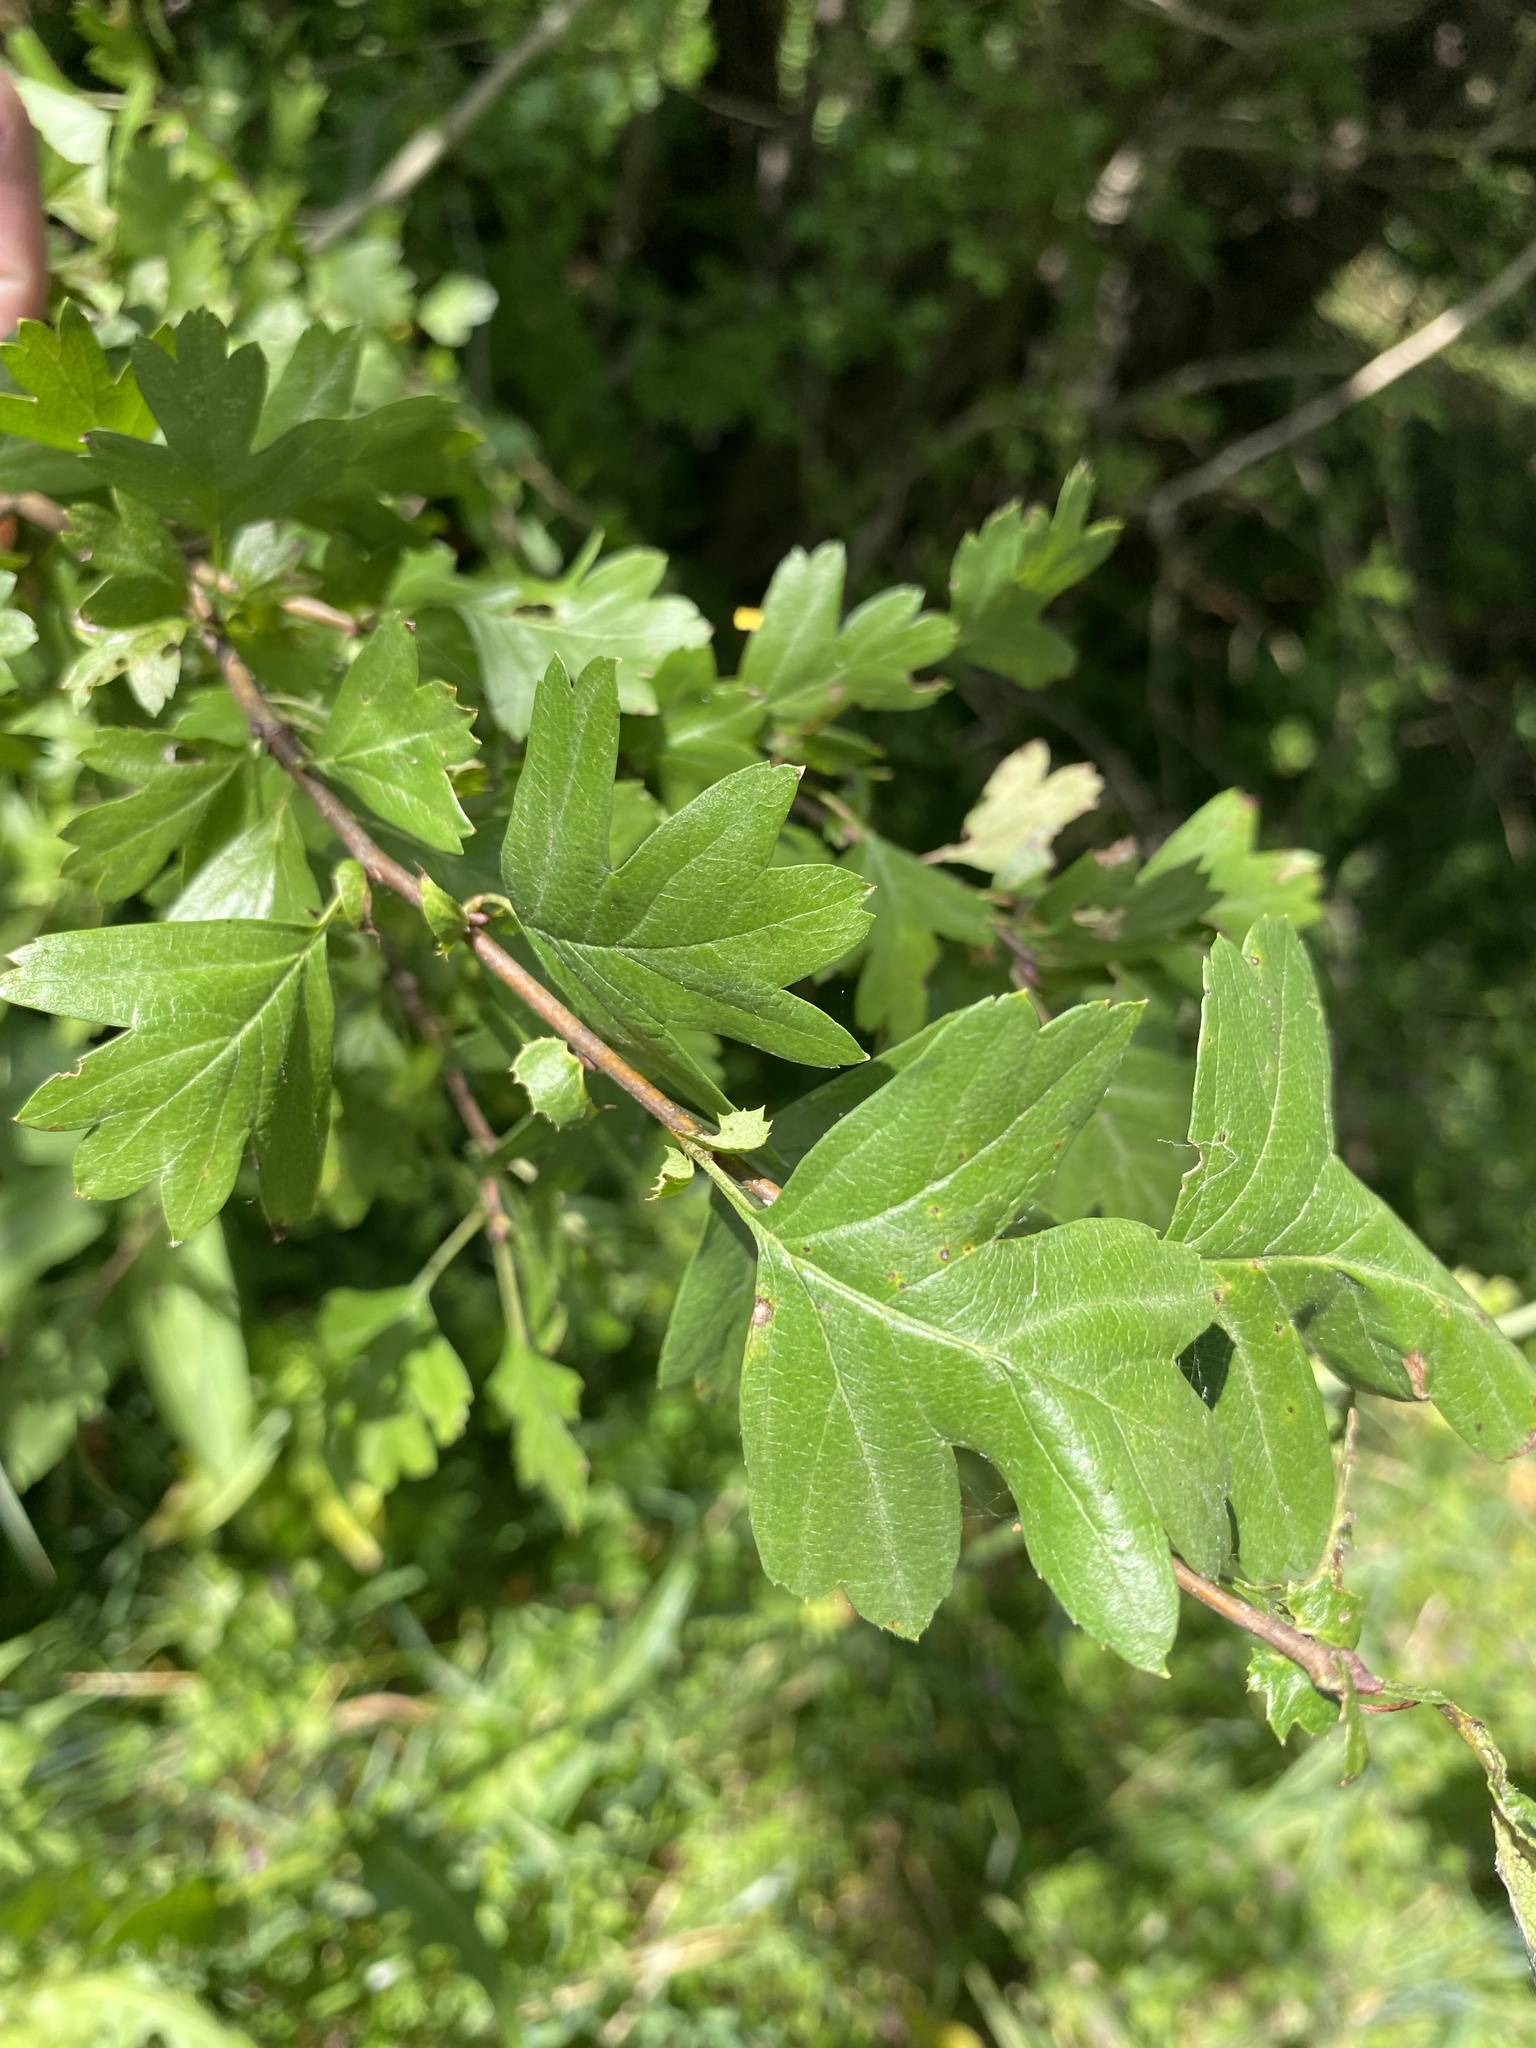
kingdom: Plantae
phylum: Tracheophyta
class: Magnoliopsida
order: Rosales
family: Rosaceae
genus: Crataegus
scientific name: Crataegus monogyna
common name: Hawthorn
